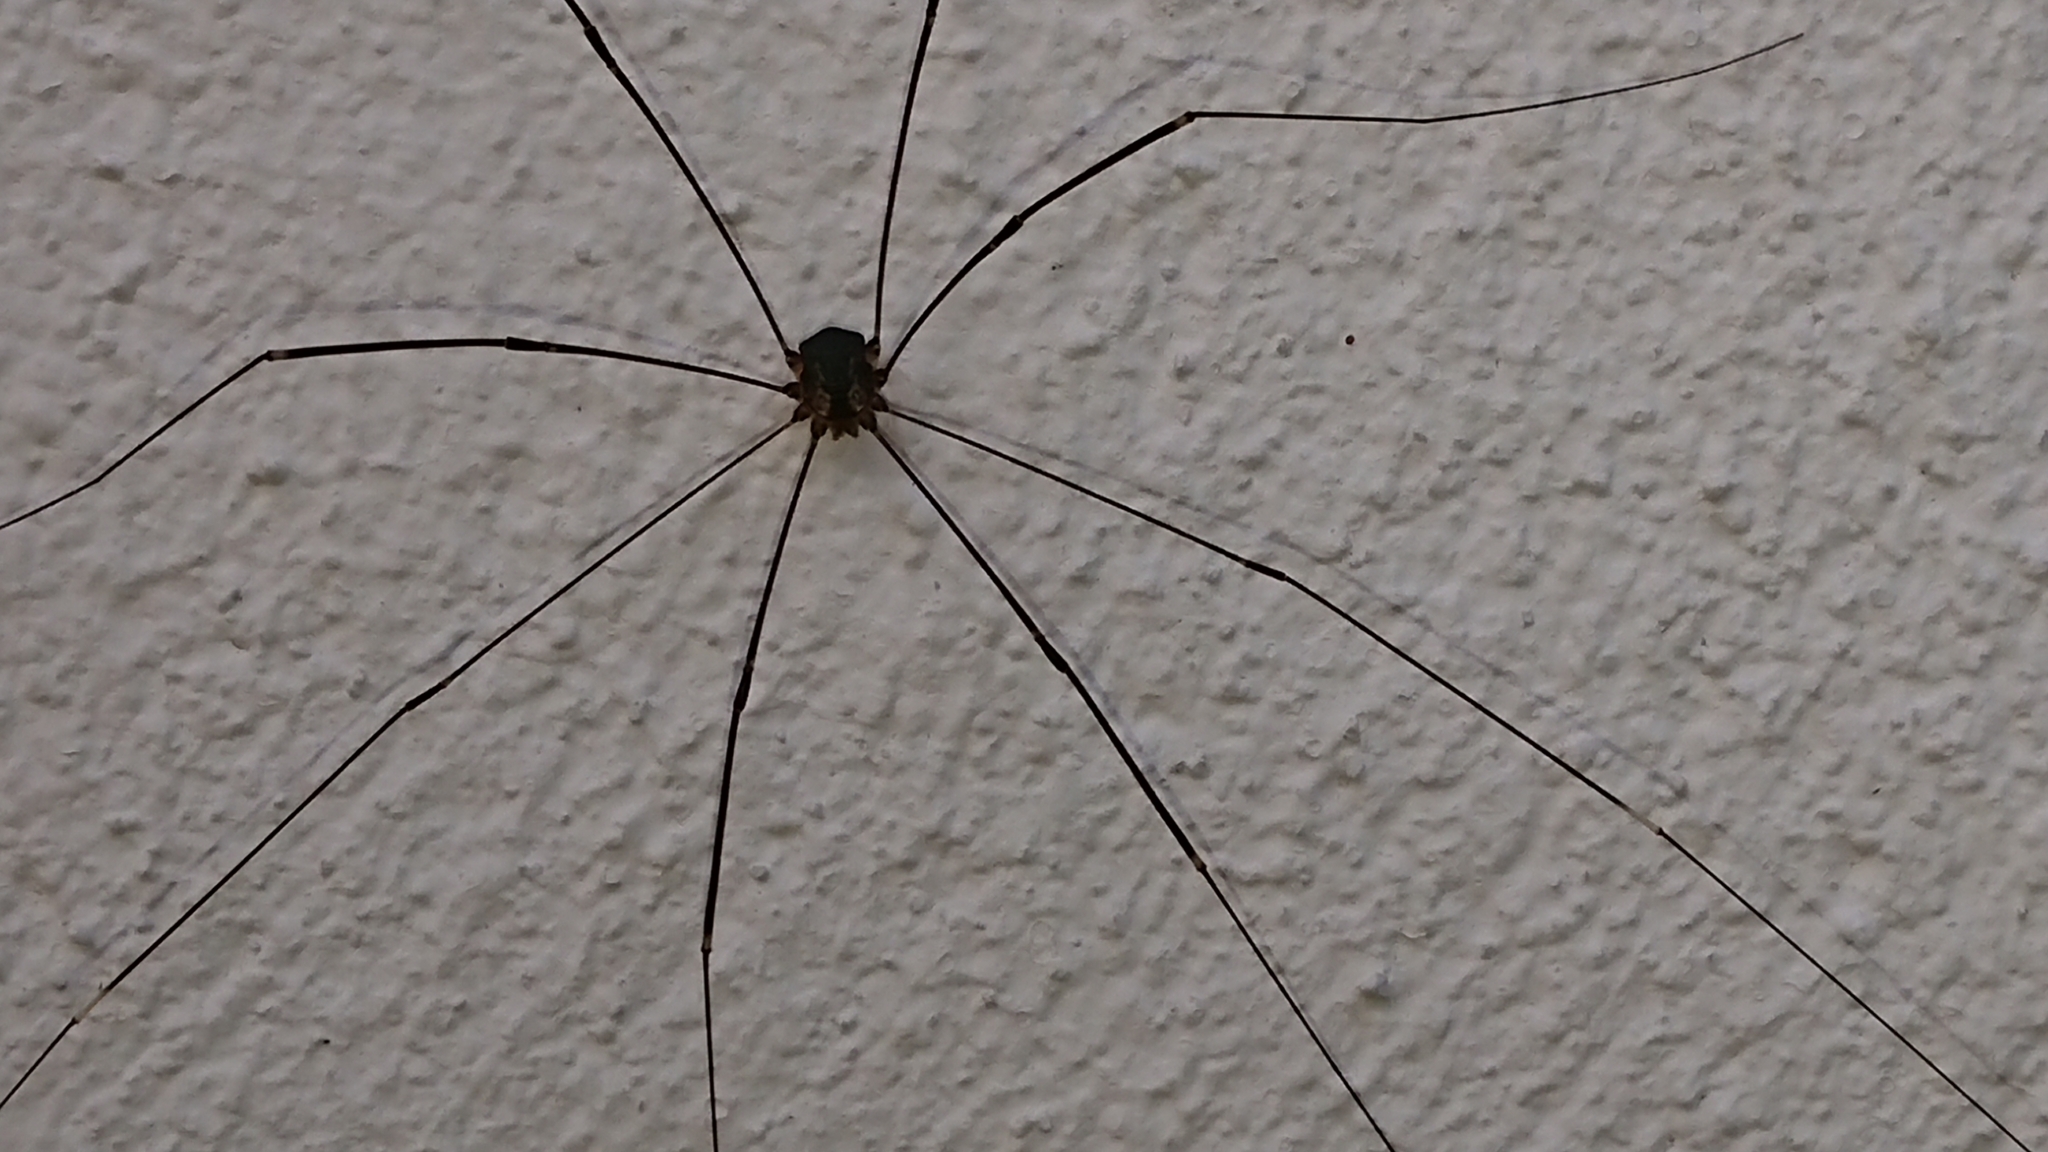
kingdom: Animalia
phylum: Arthropoda
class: Arachnida
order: Opiliones
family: Sclerosomatidae
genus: Leiobunum
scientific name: Leiobunum
